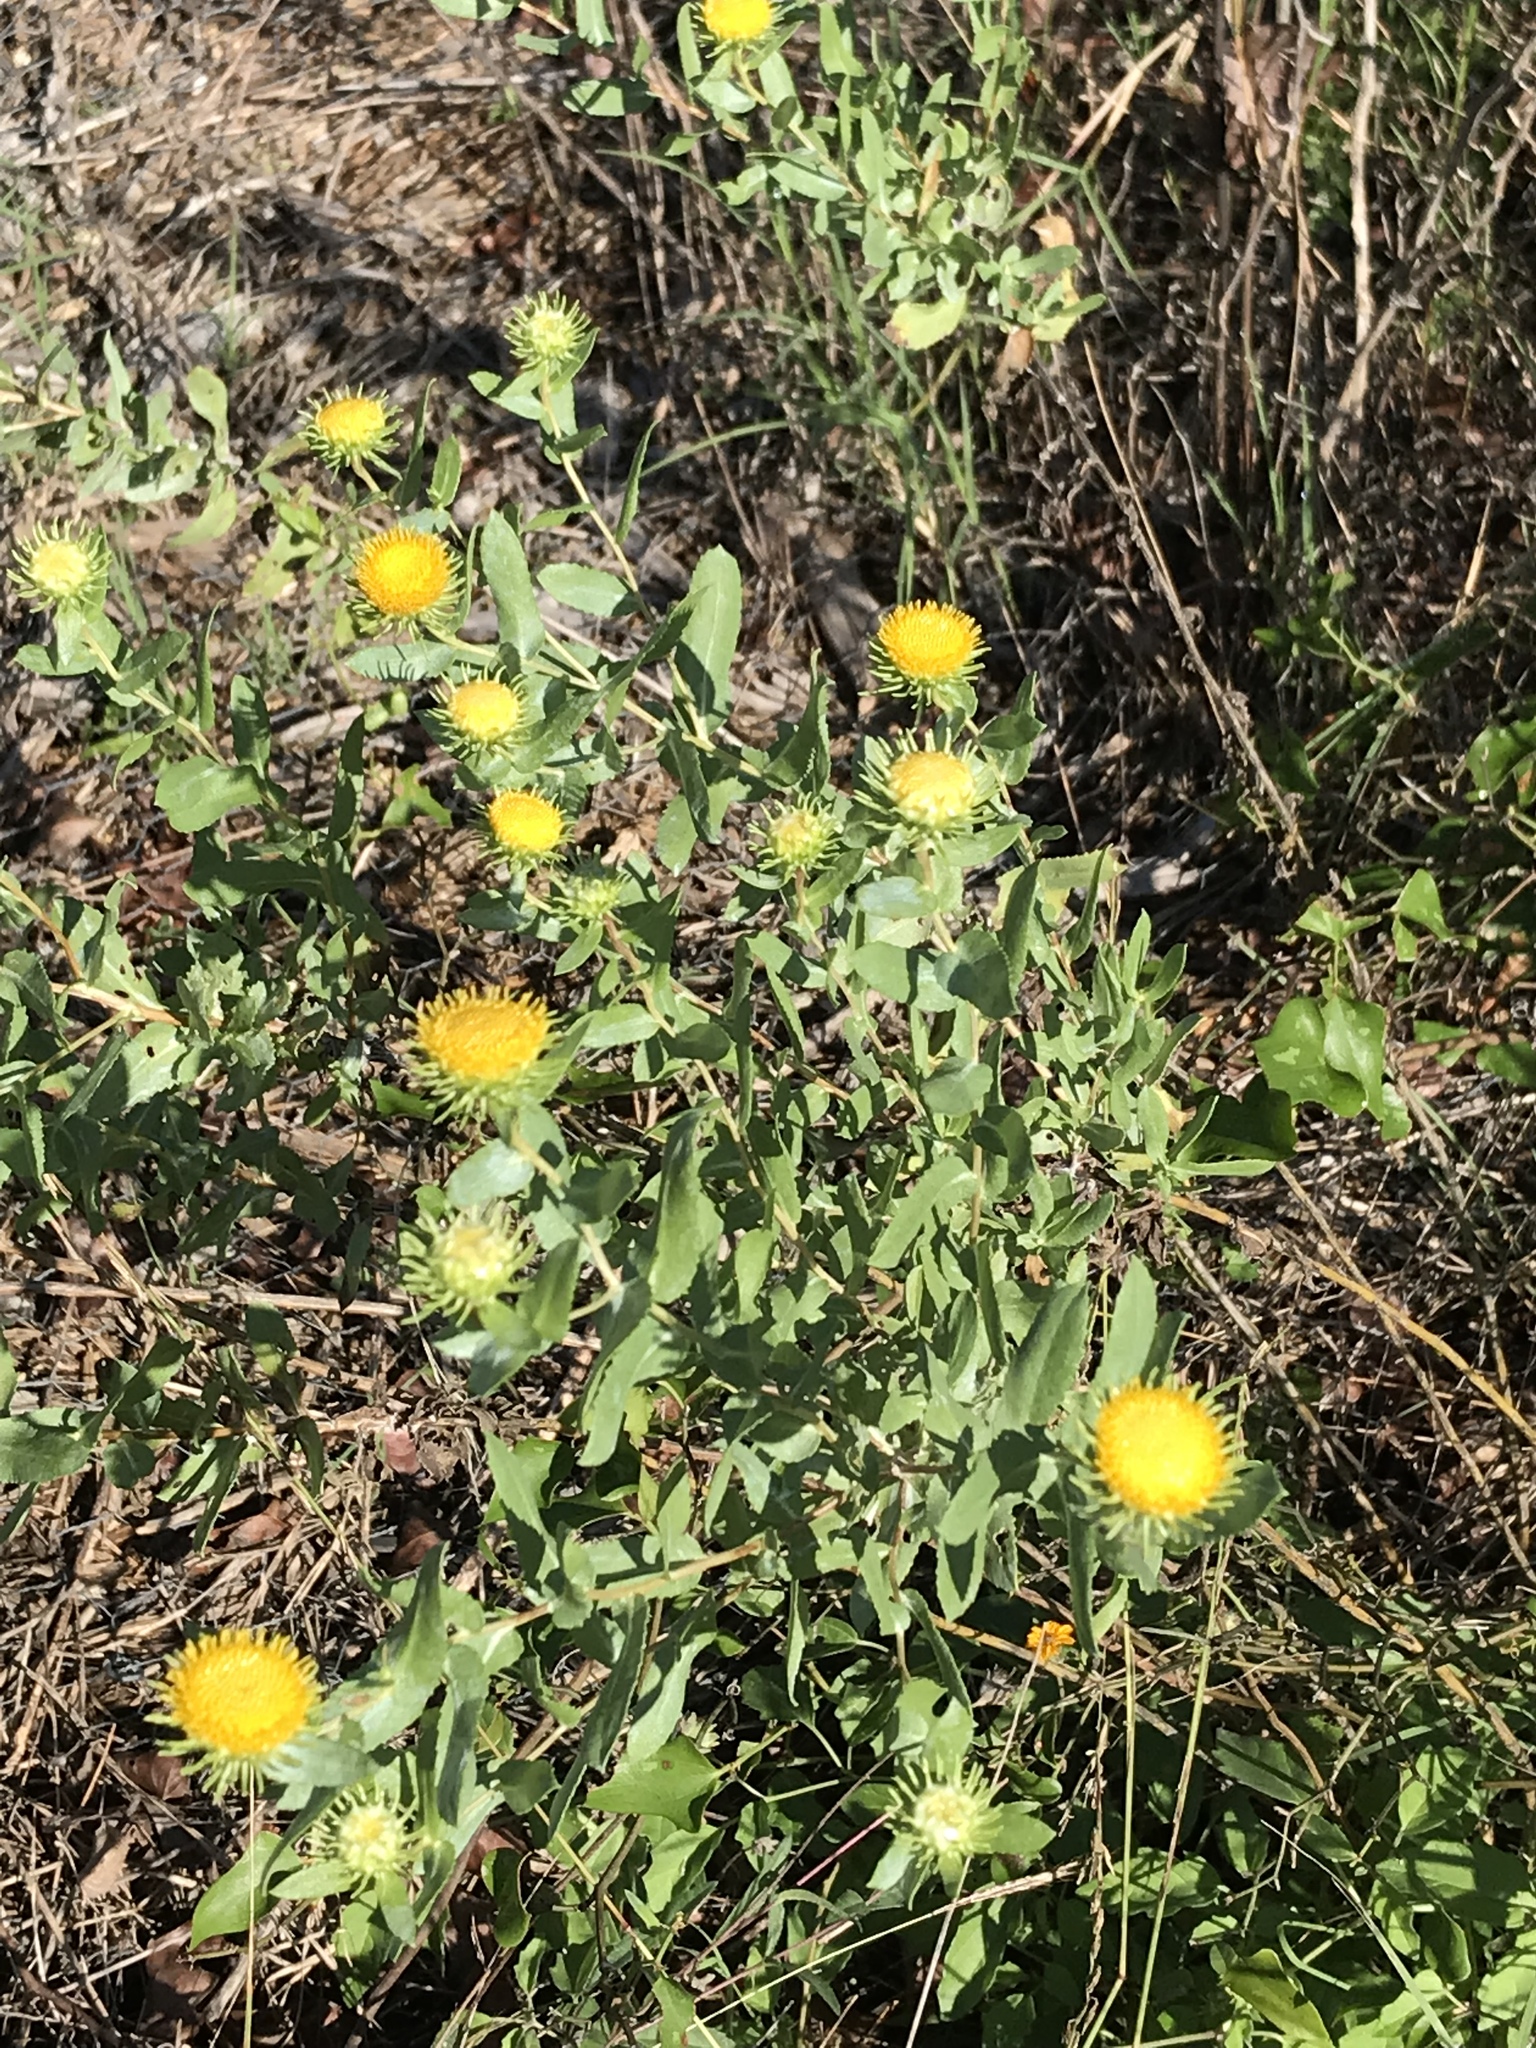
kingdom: Plantae
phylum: Tracheophyta
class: Magnoliopsida
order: Asterales
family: Asteraceae
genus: Grindelia
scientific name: Grindelia nuda
